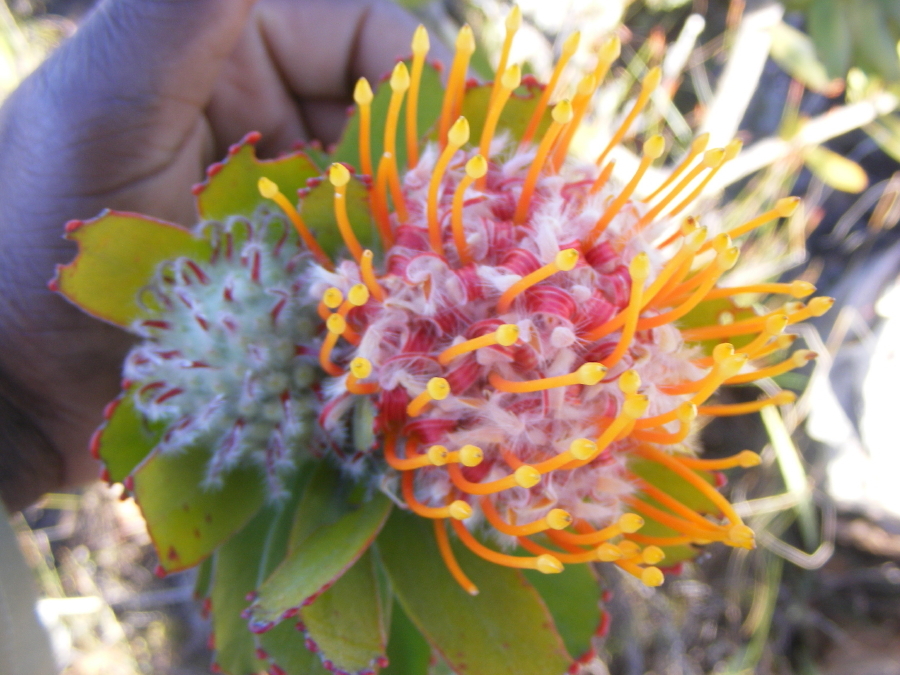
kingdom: Plantae
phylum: Tracheophyta
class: Magnoliopsida
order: Proteales
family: Proteaceae
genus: Leucospermum
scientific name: Leucospermum pluridens
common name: Robinson pincushion
